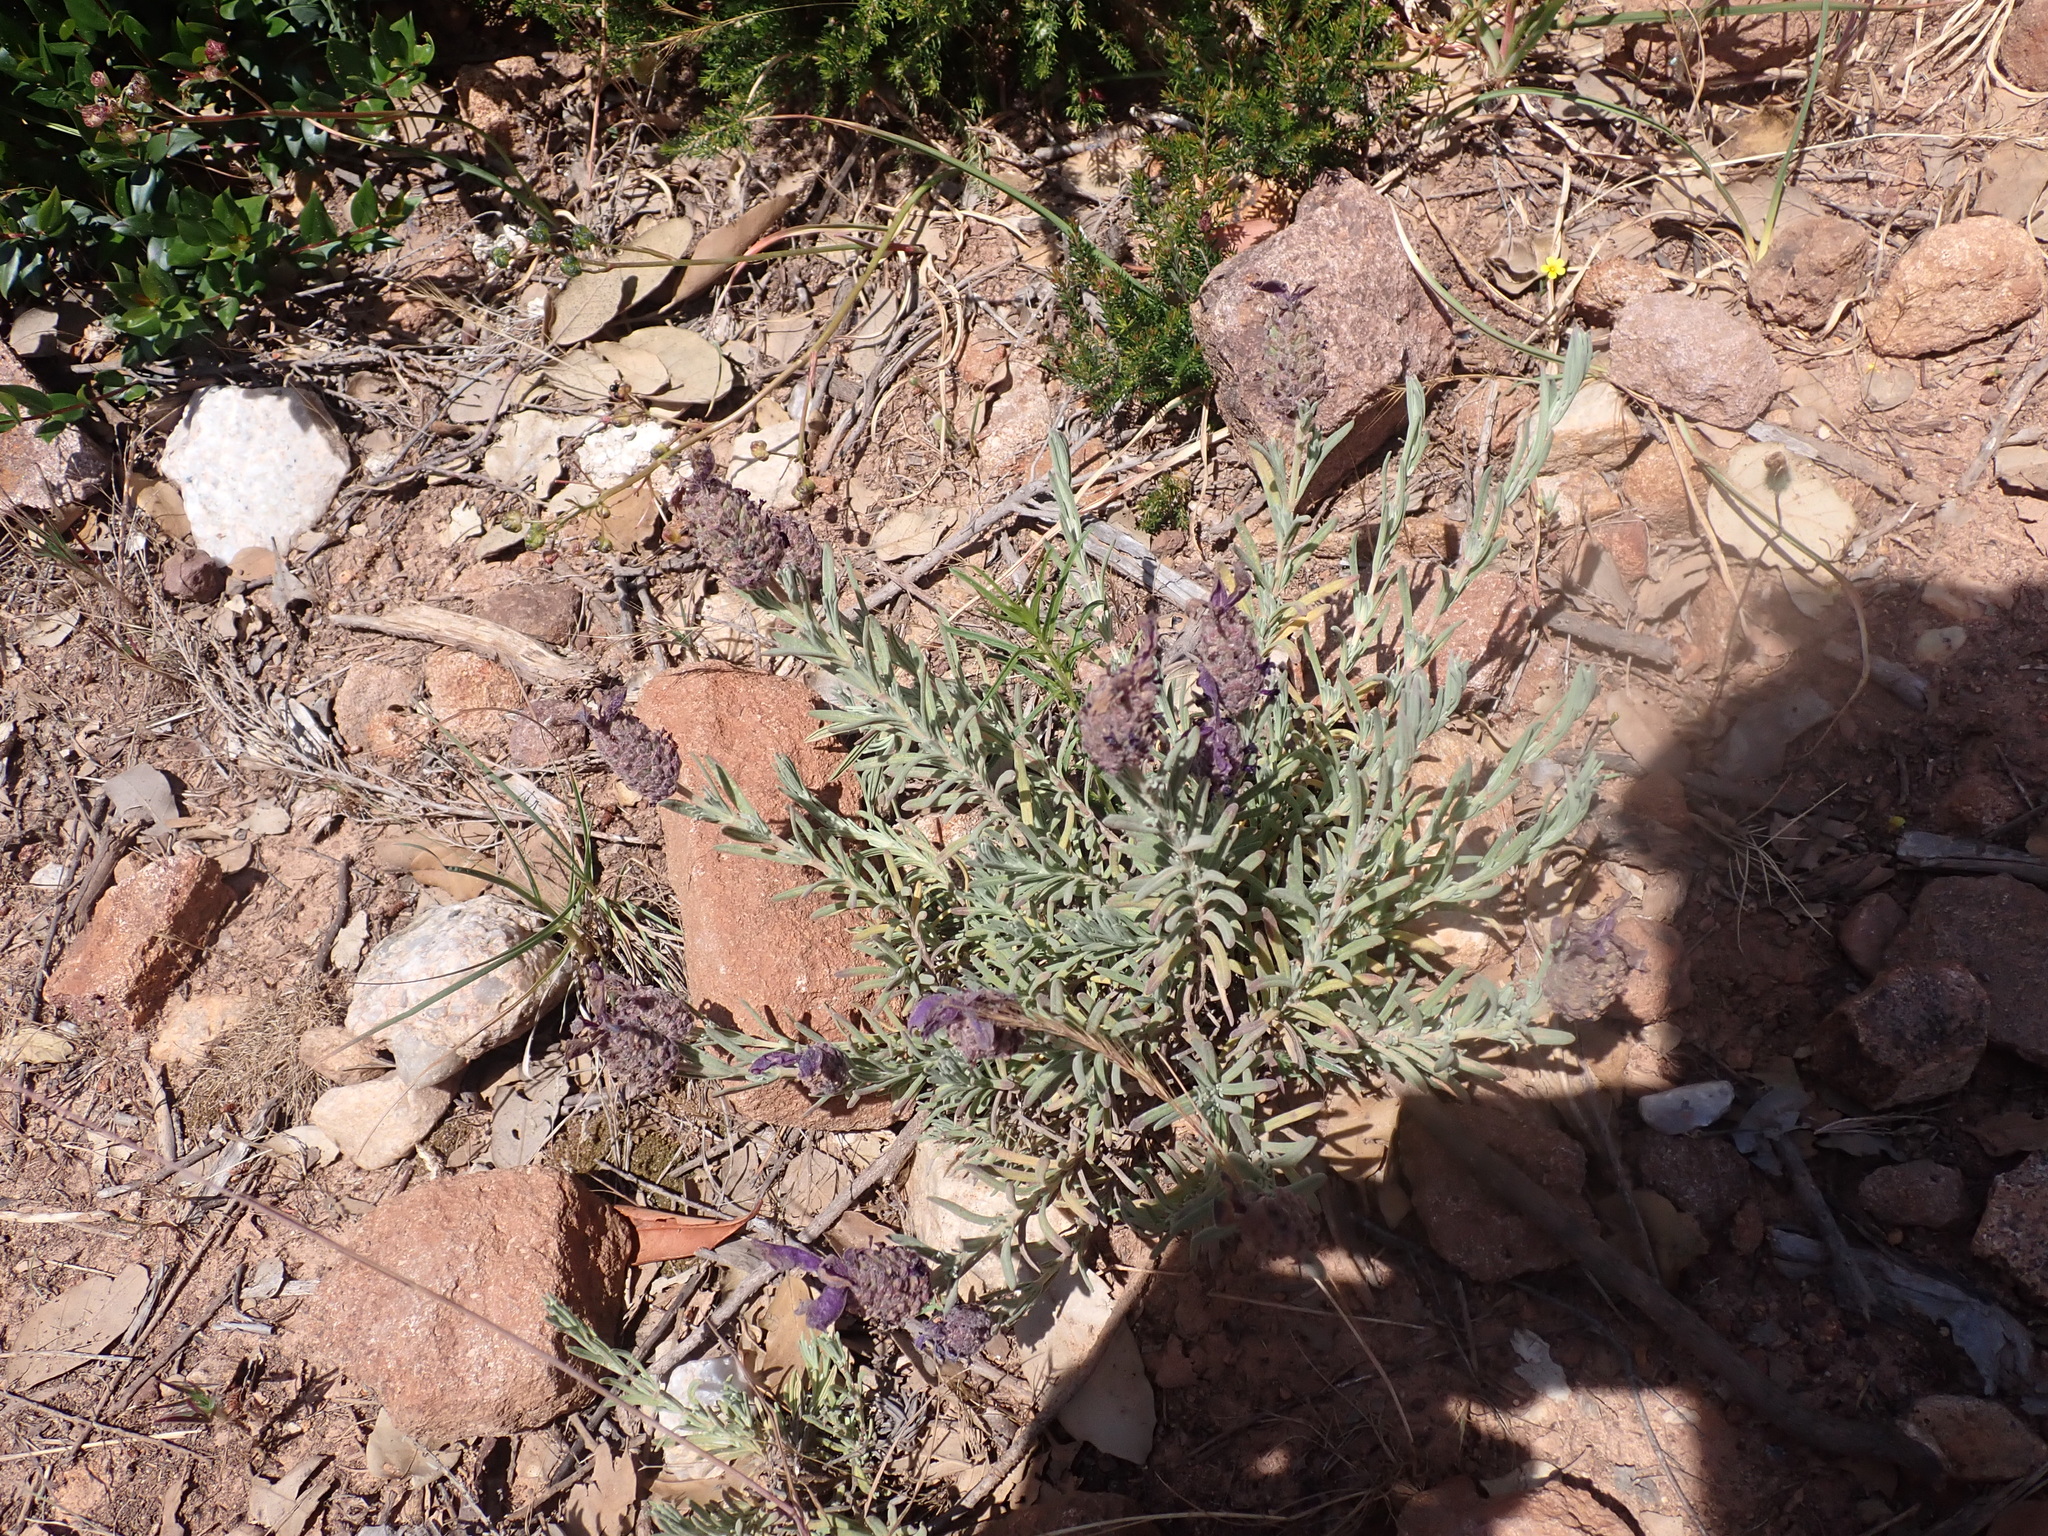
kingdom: Plantae
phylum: Tracheophyta
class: Magnoliopsida
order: Lamiales
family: Lamiaceae
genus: Lavandula
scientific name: Lavandula stoechas
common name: French lavender
